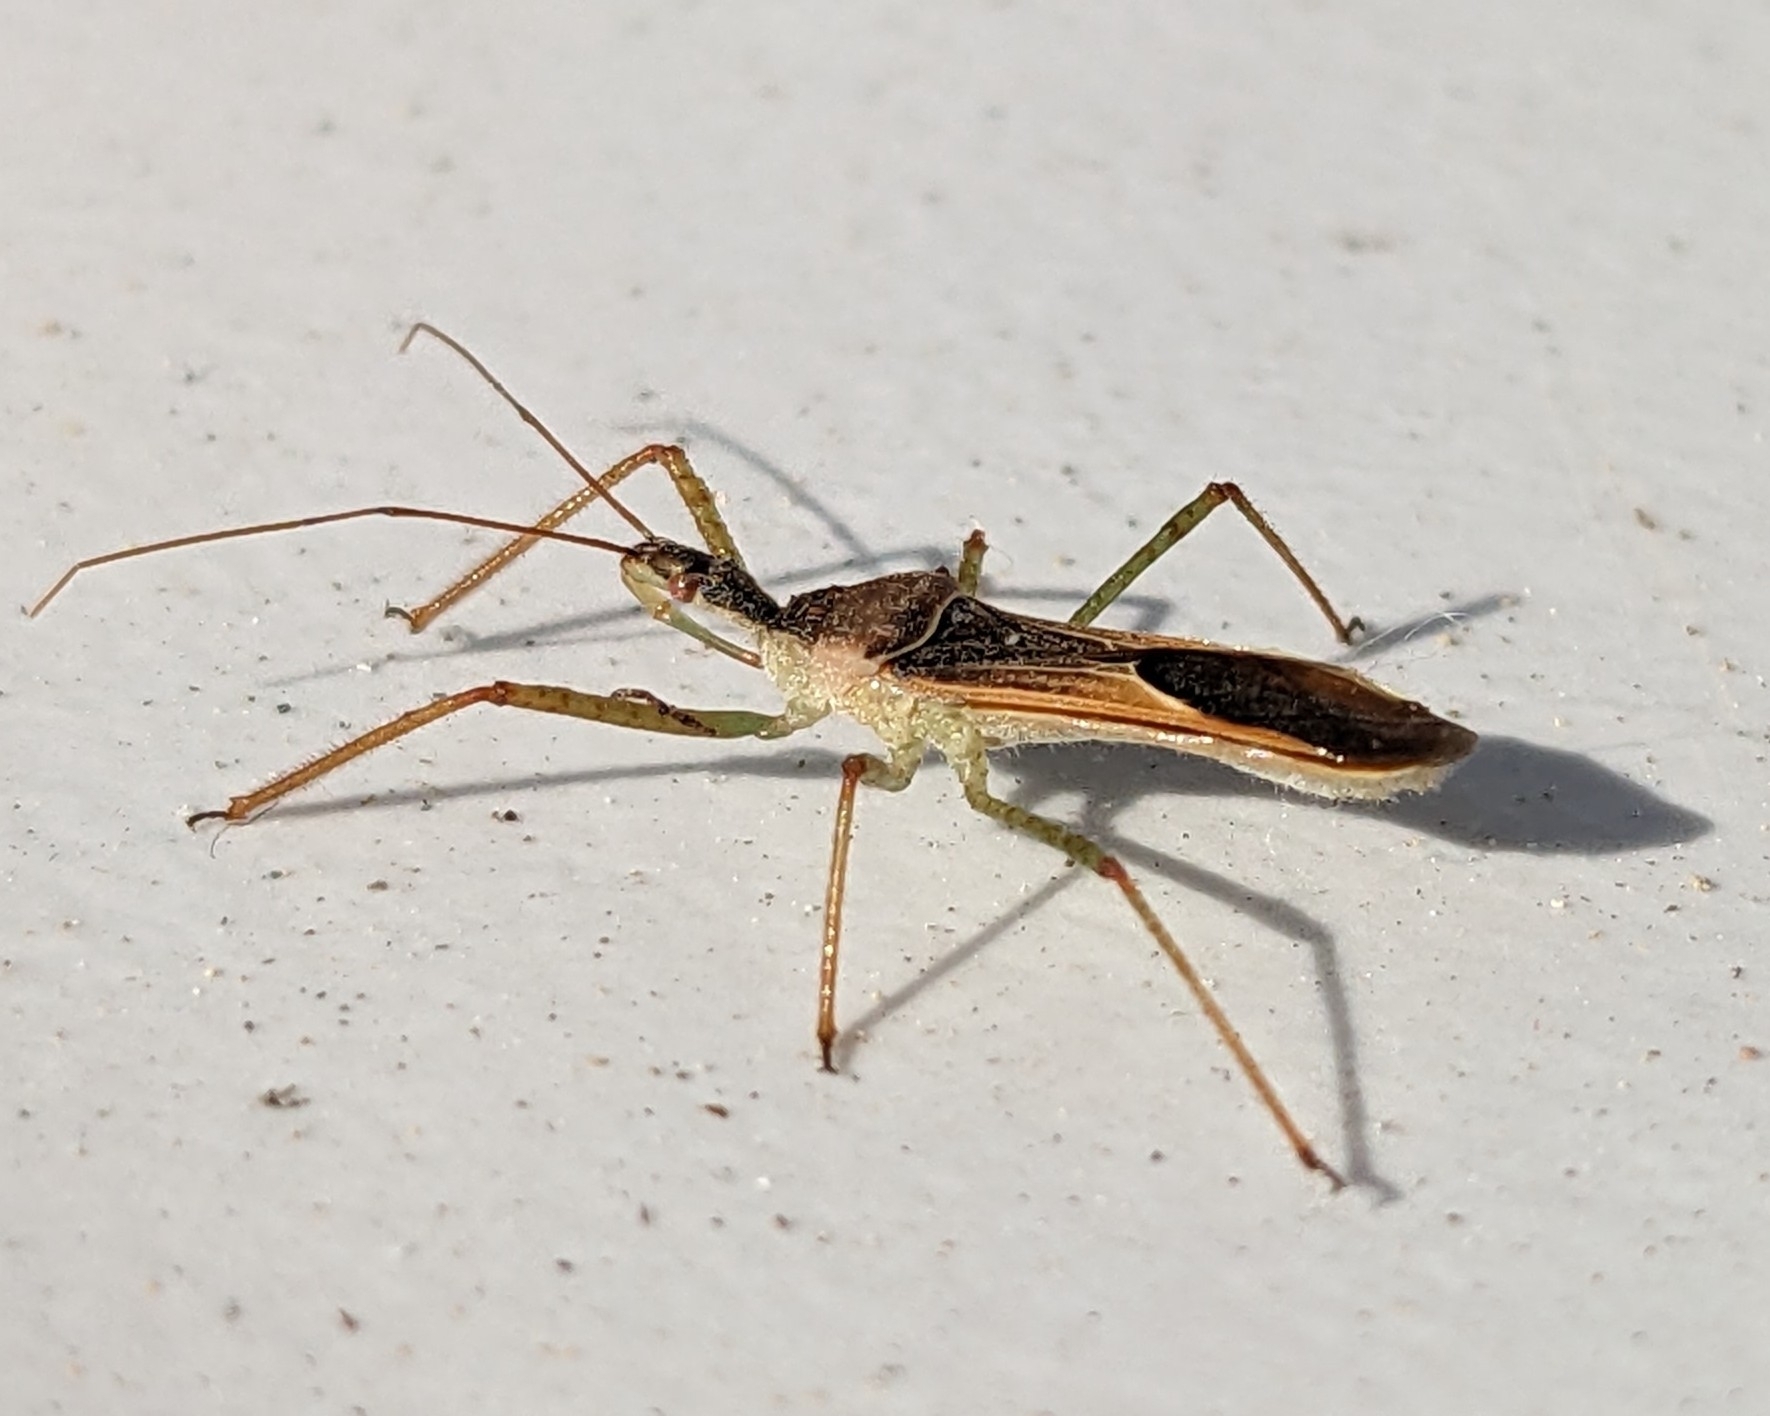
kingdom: Animalia
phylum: Arthropoda
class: Insecta
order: Hemiptera
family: Reduviidae
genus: Zelus
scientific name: Zelus renardii
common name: Assassin bug
